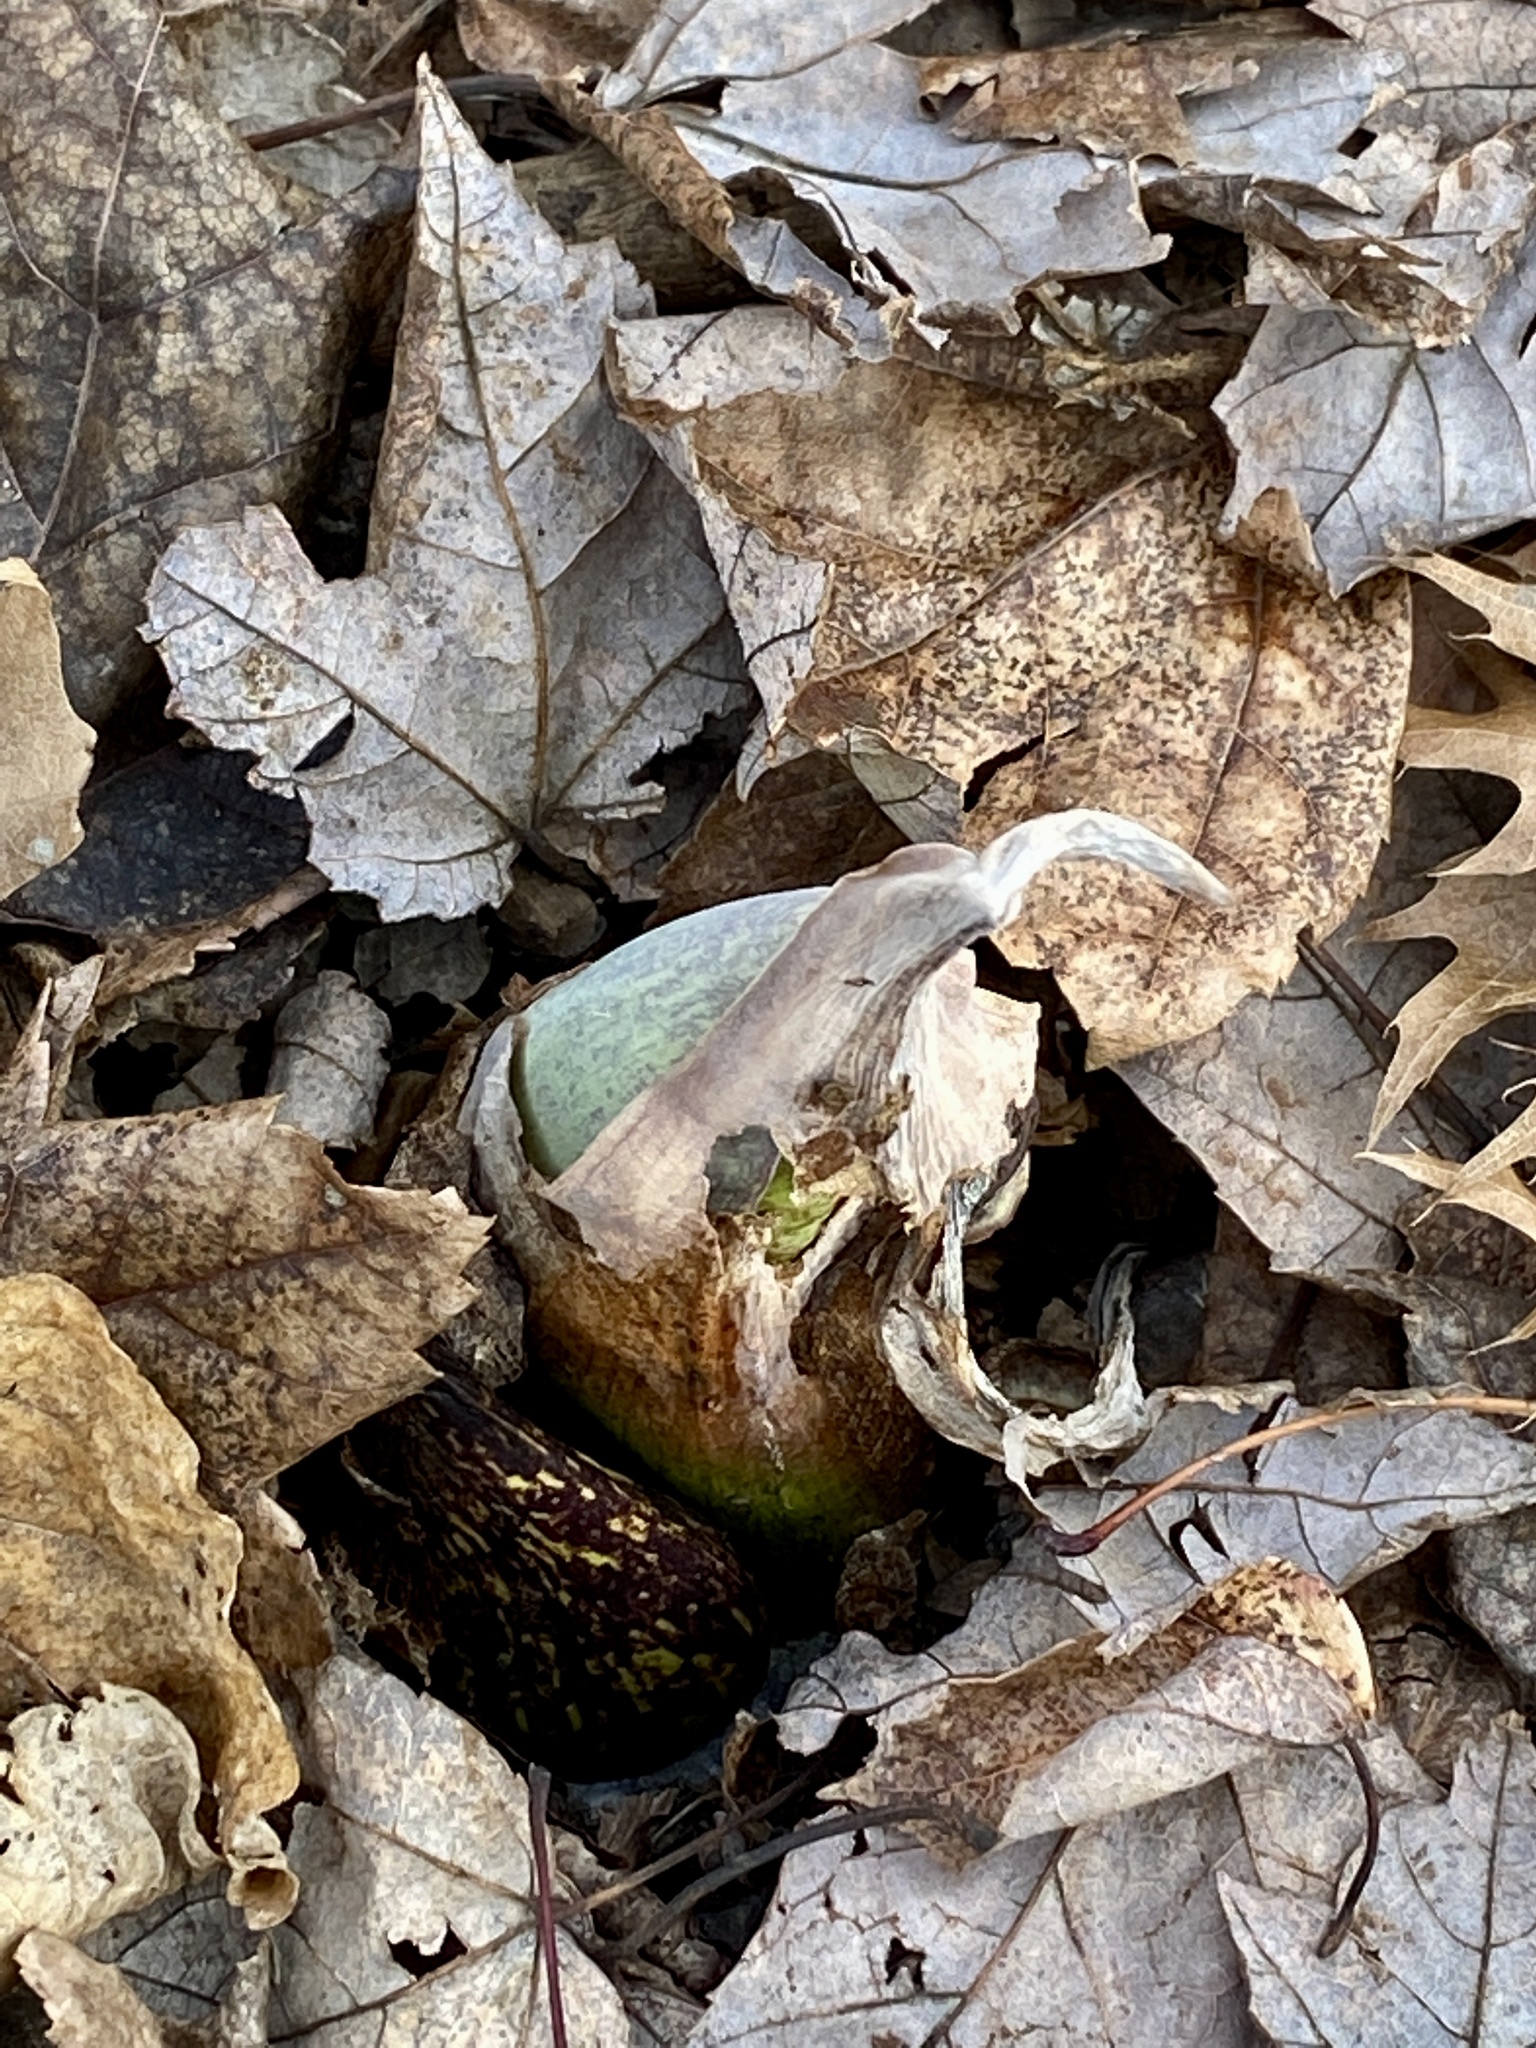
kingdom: Plantae
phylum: Tracheophyta
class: Liliopsida
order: Alismatales
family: Araceae
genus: Symplocarpus
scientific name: Symplocarpus foetidus
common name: Eastern skunk cabbage
